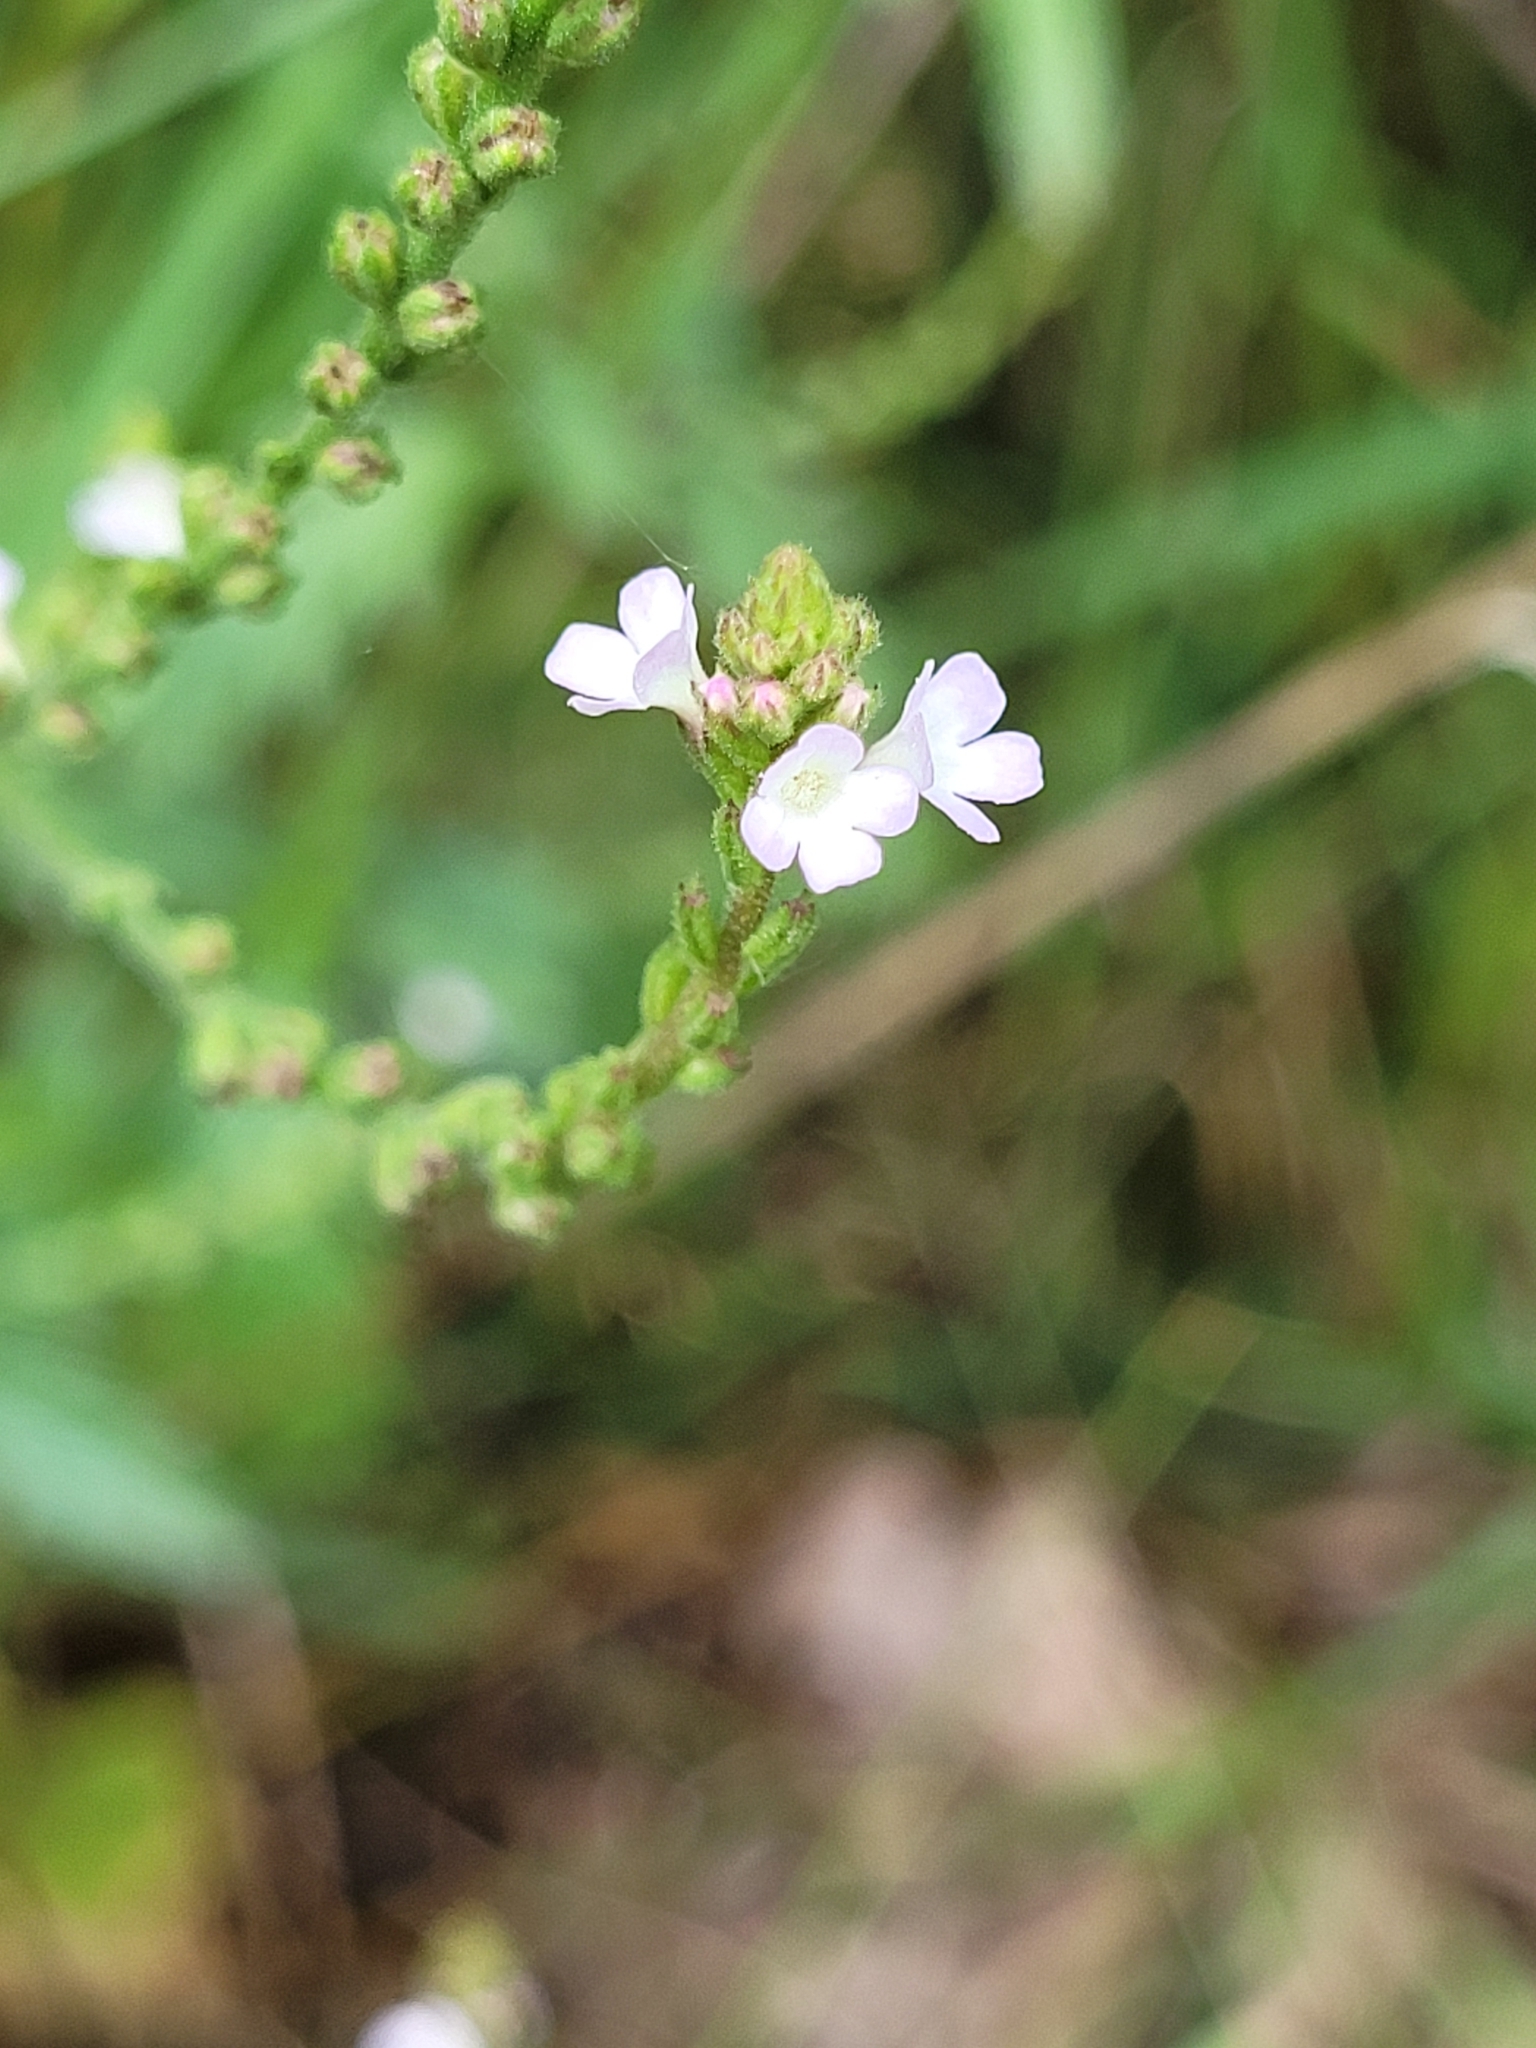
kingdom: Plantae
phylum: Tracheophyta
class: Magnoliopsida
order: Lamiales
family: Verbenaceae
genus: Verbena
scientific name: Verbena officinalis
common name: Vervain
